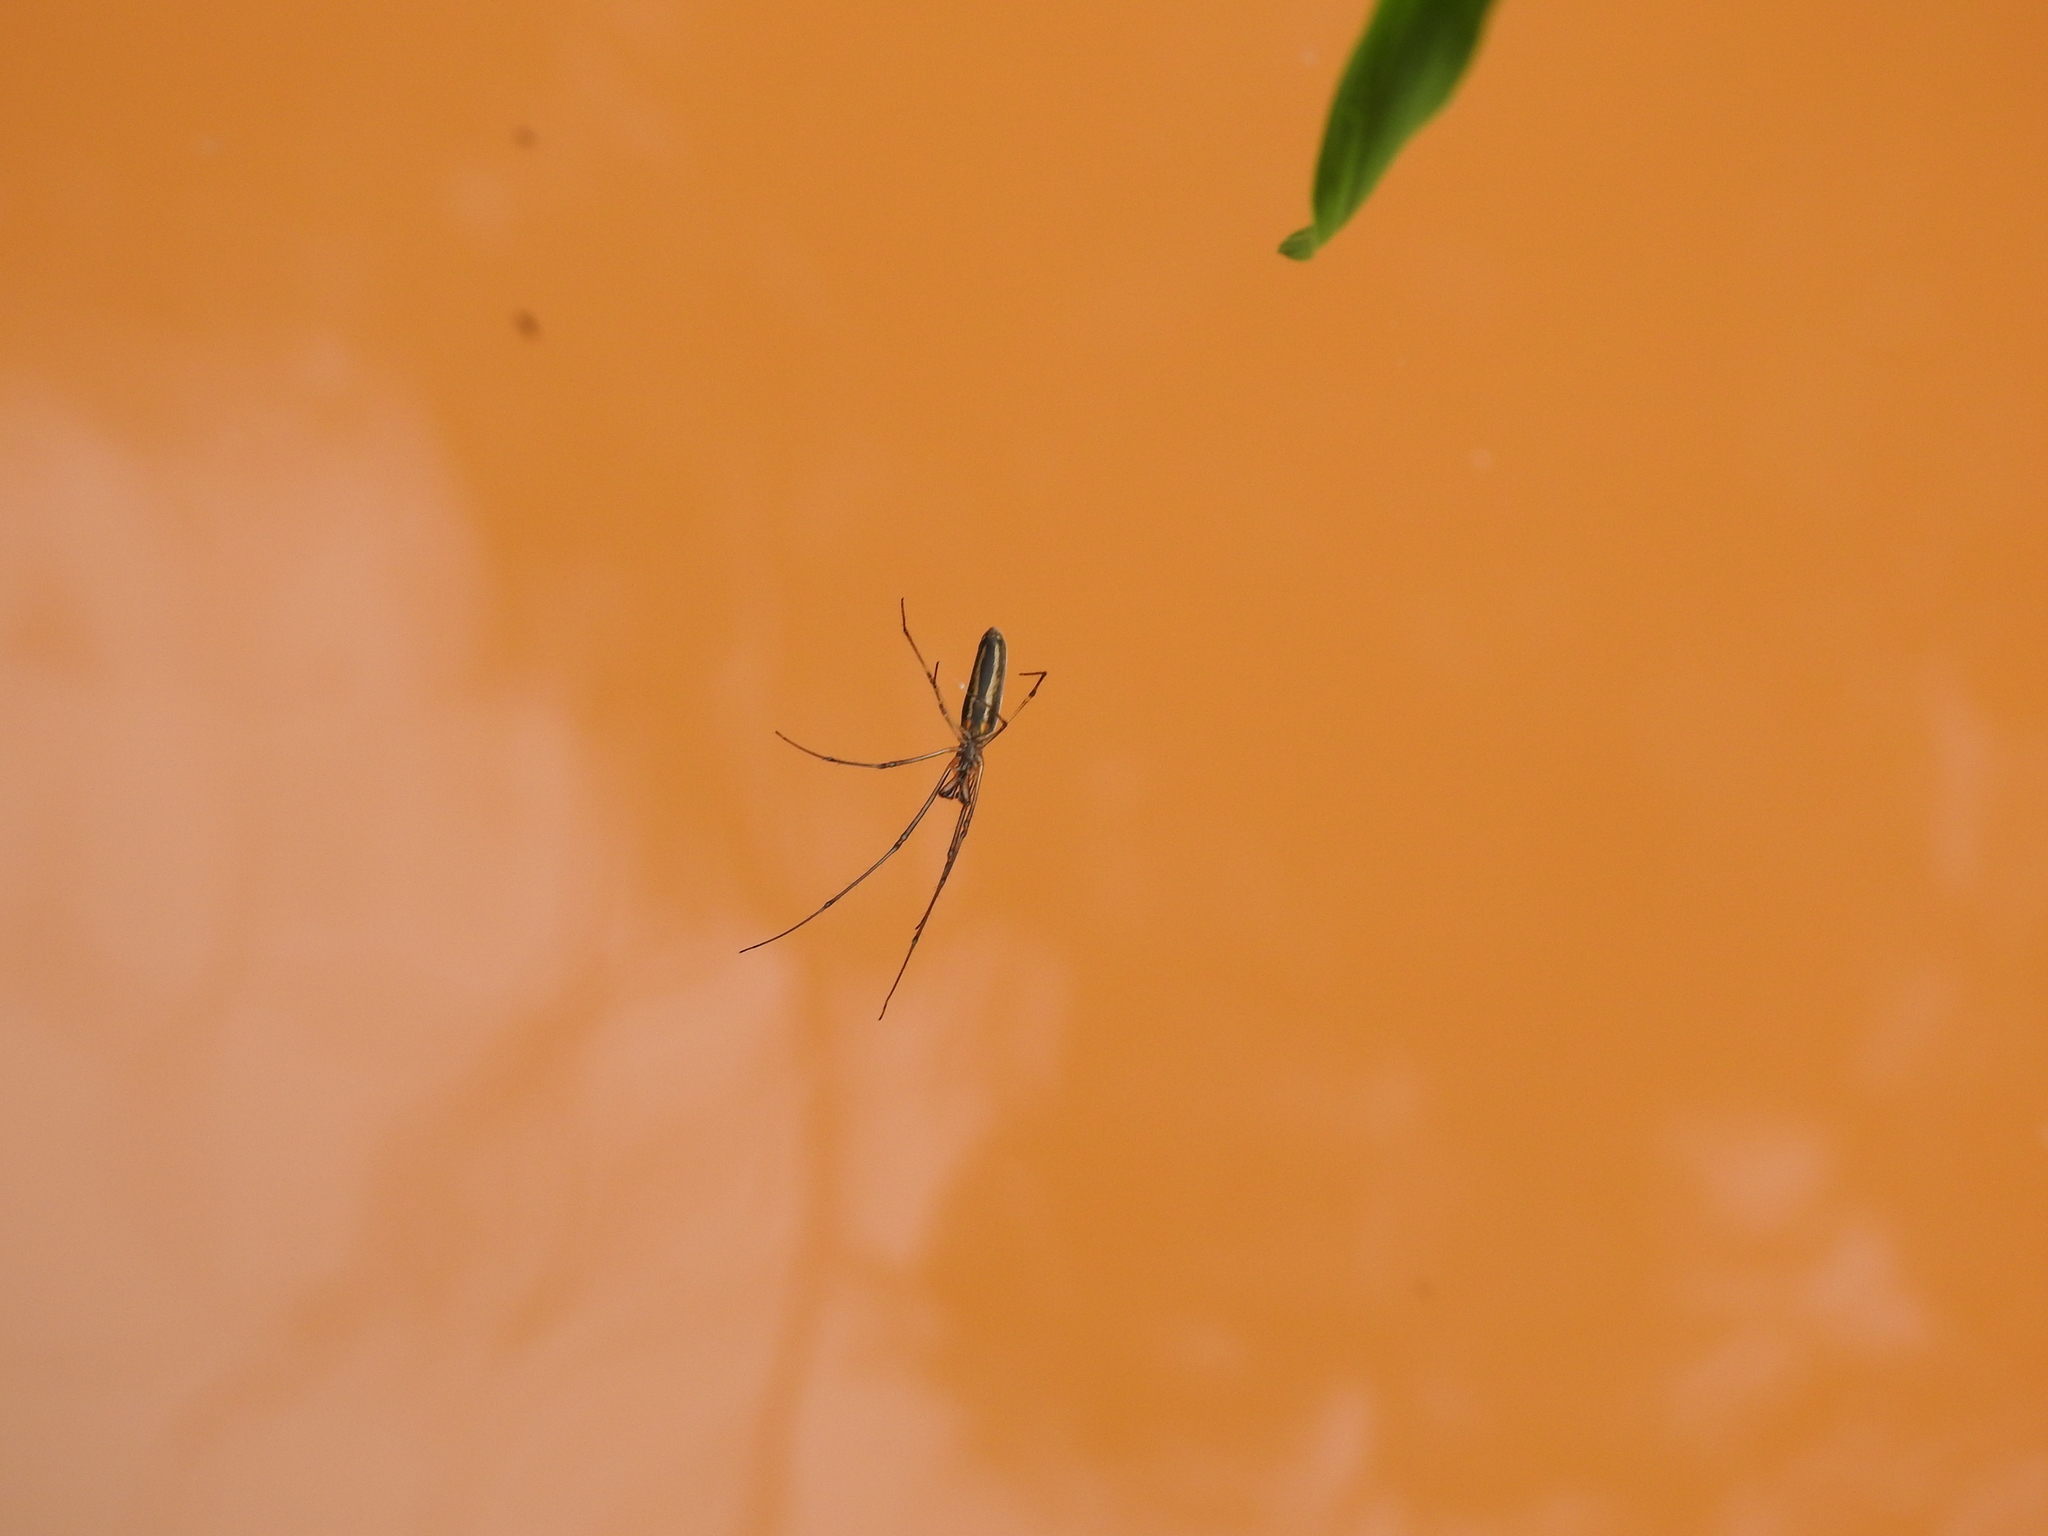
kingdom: Animalia
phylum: Arthropoda
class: Arachnida
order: Araneae
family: Tetragnathidae
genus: Tetragnatha
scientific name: Tetragnatha
